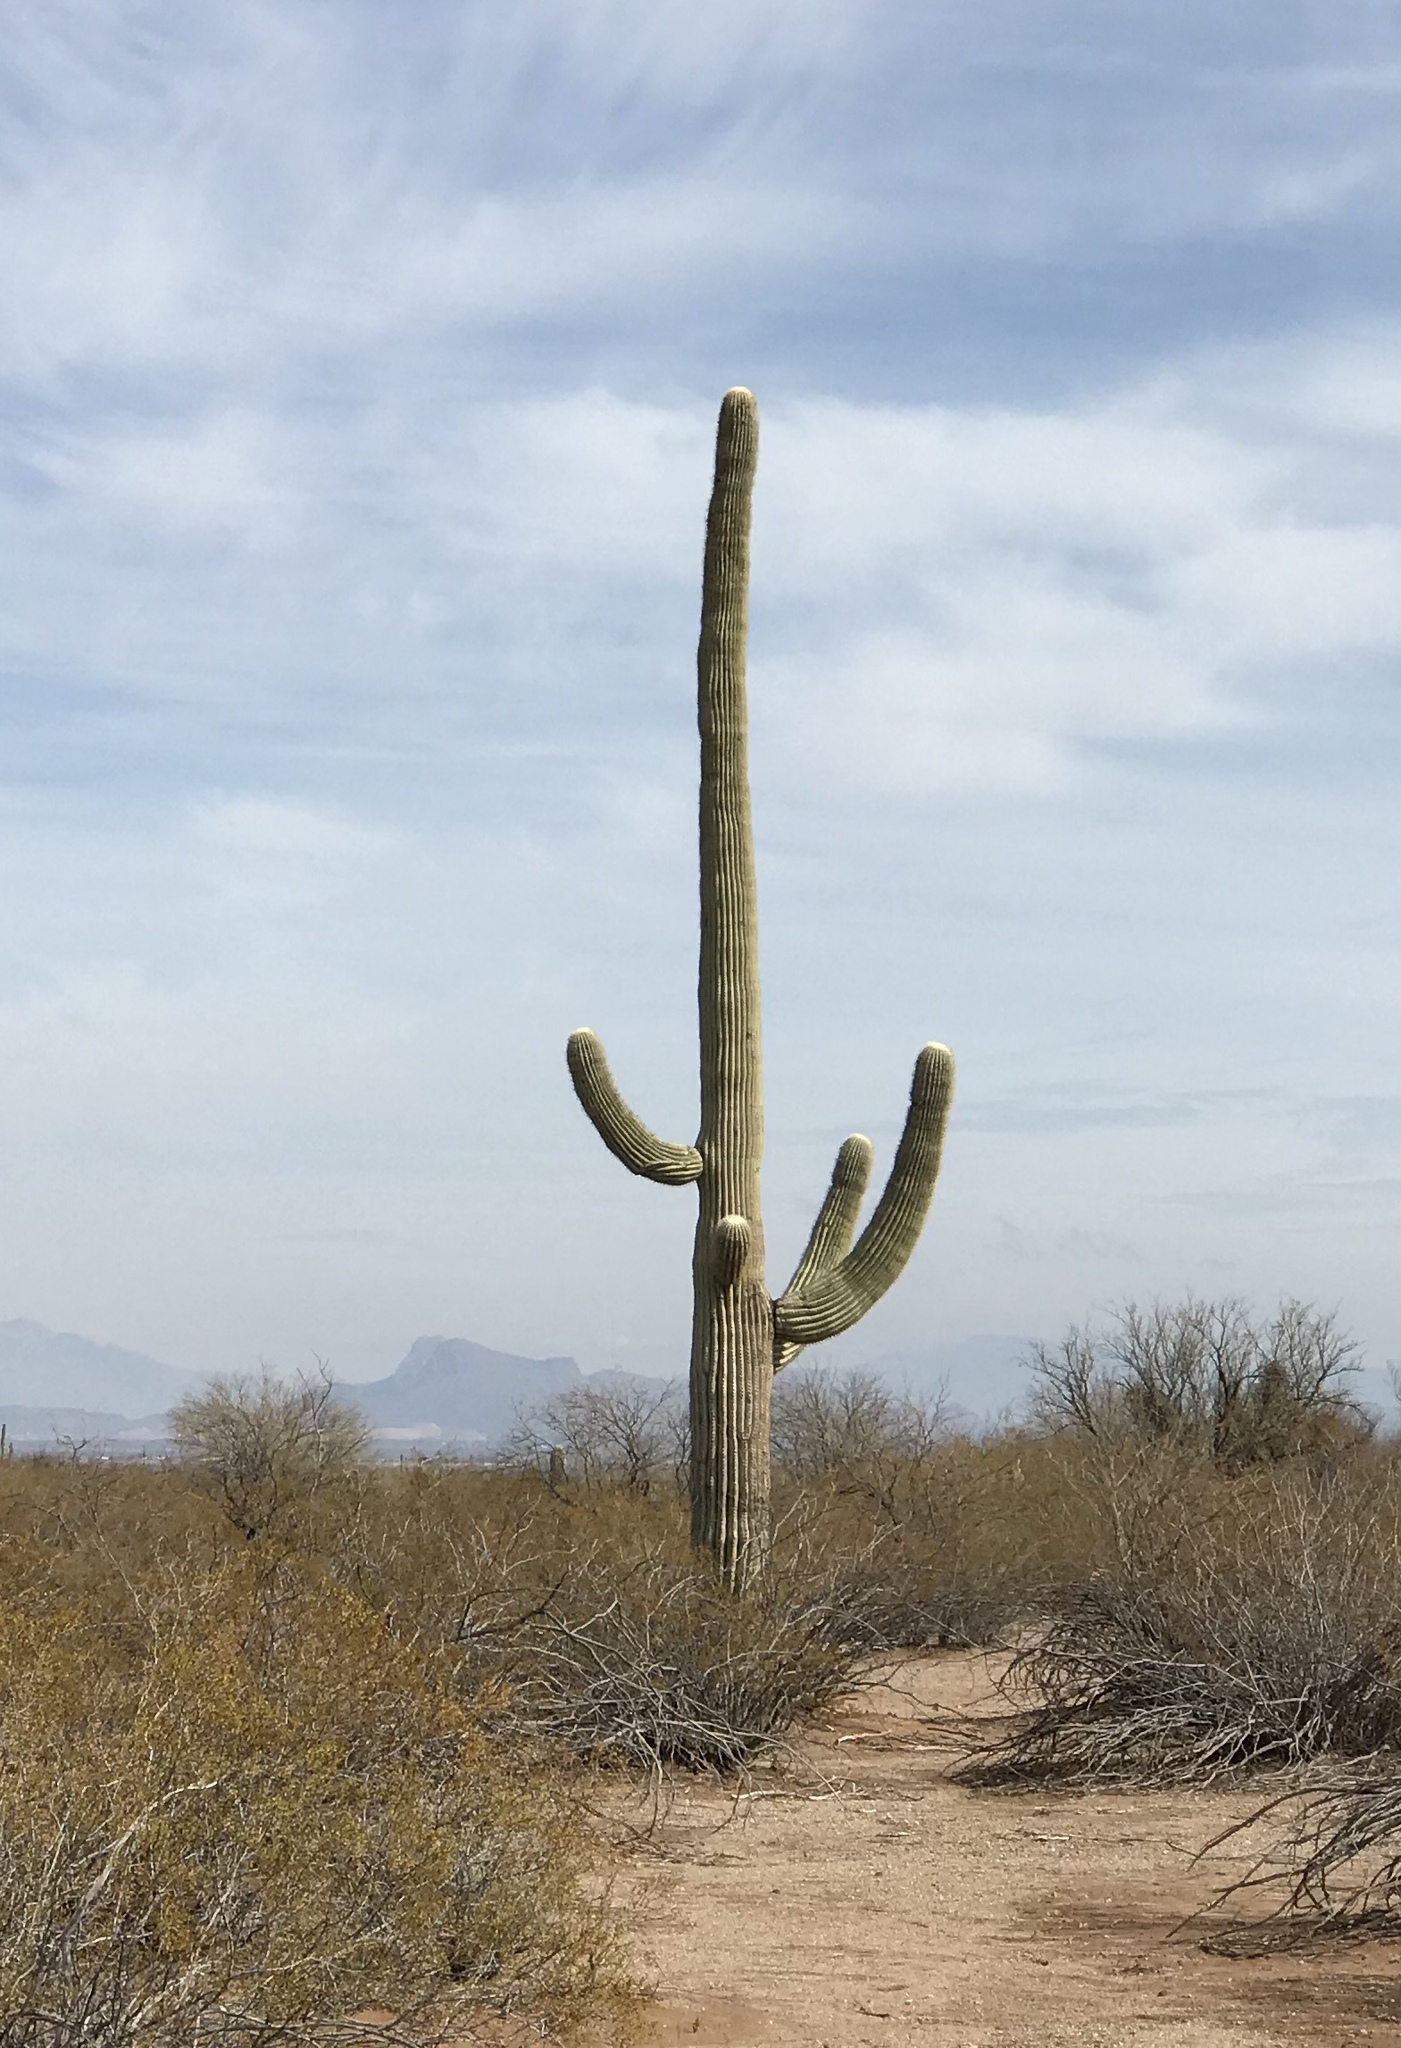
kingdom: Plantae
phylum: Tracheophyta
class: Magnoliopsida
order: Caryophyllales
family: Cactaceae
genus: Carnegiea
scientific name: Carnegiea gigantea
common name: Saguaro
